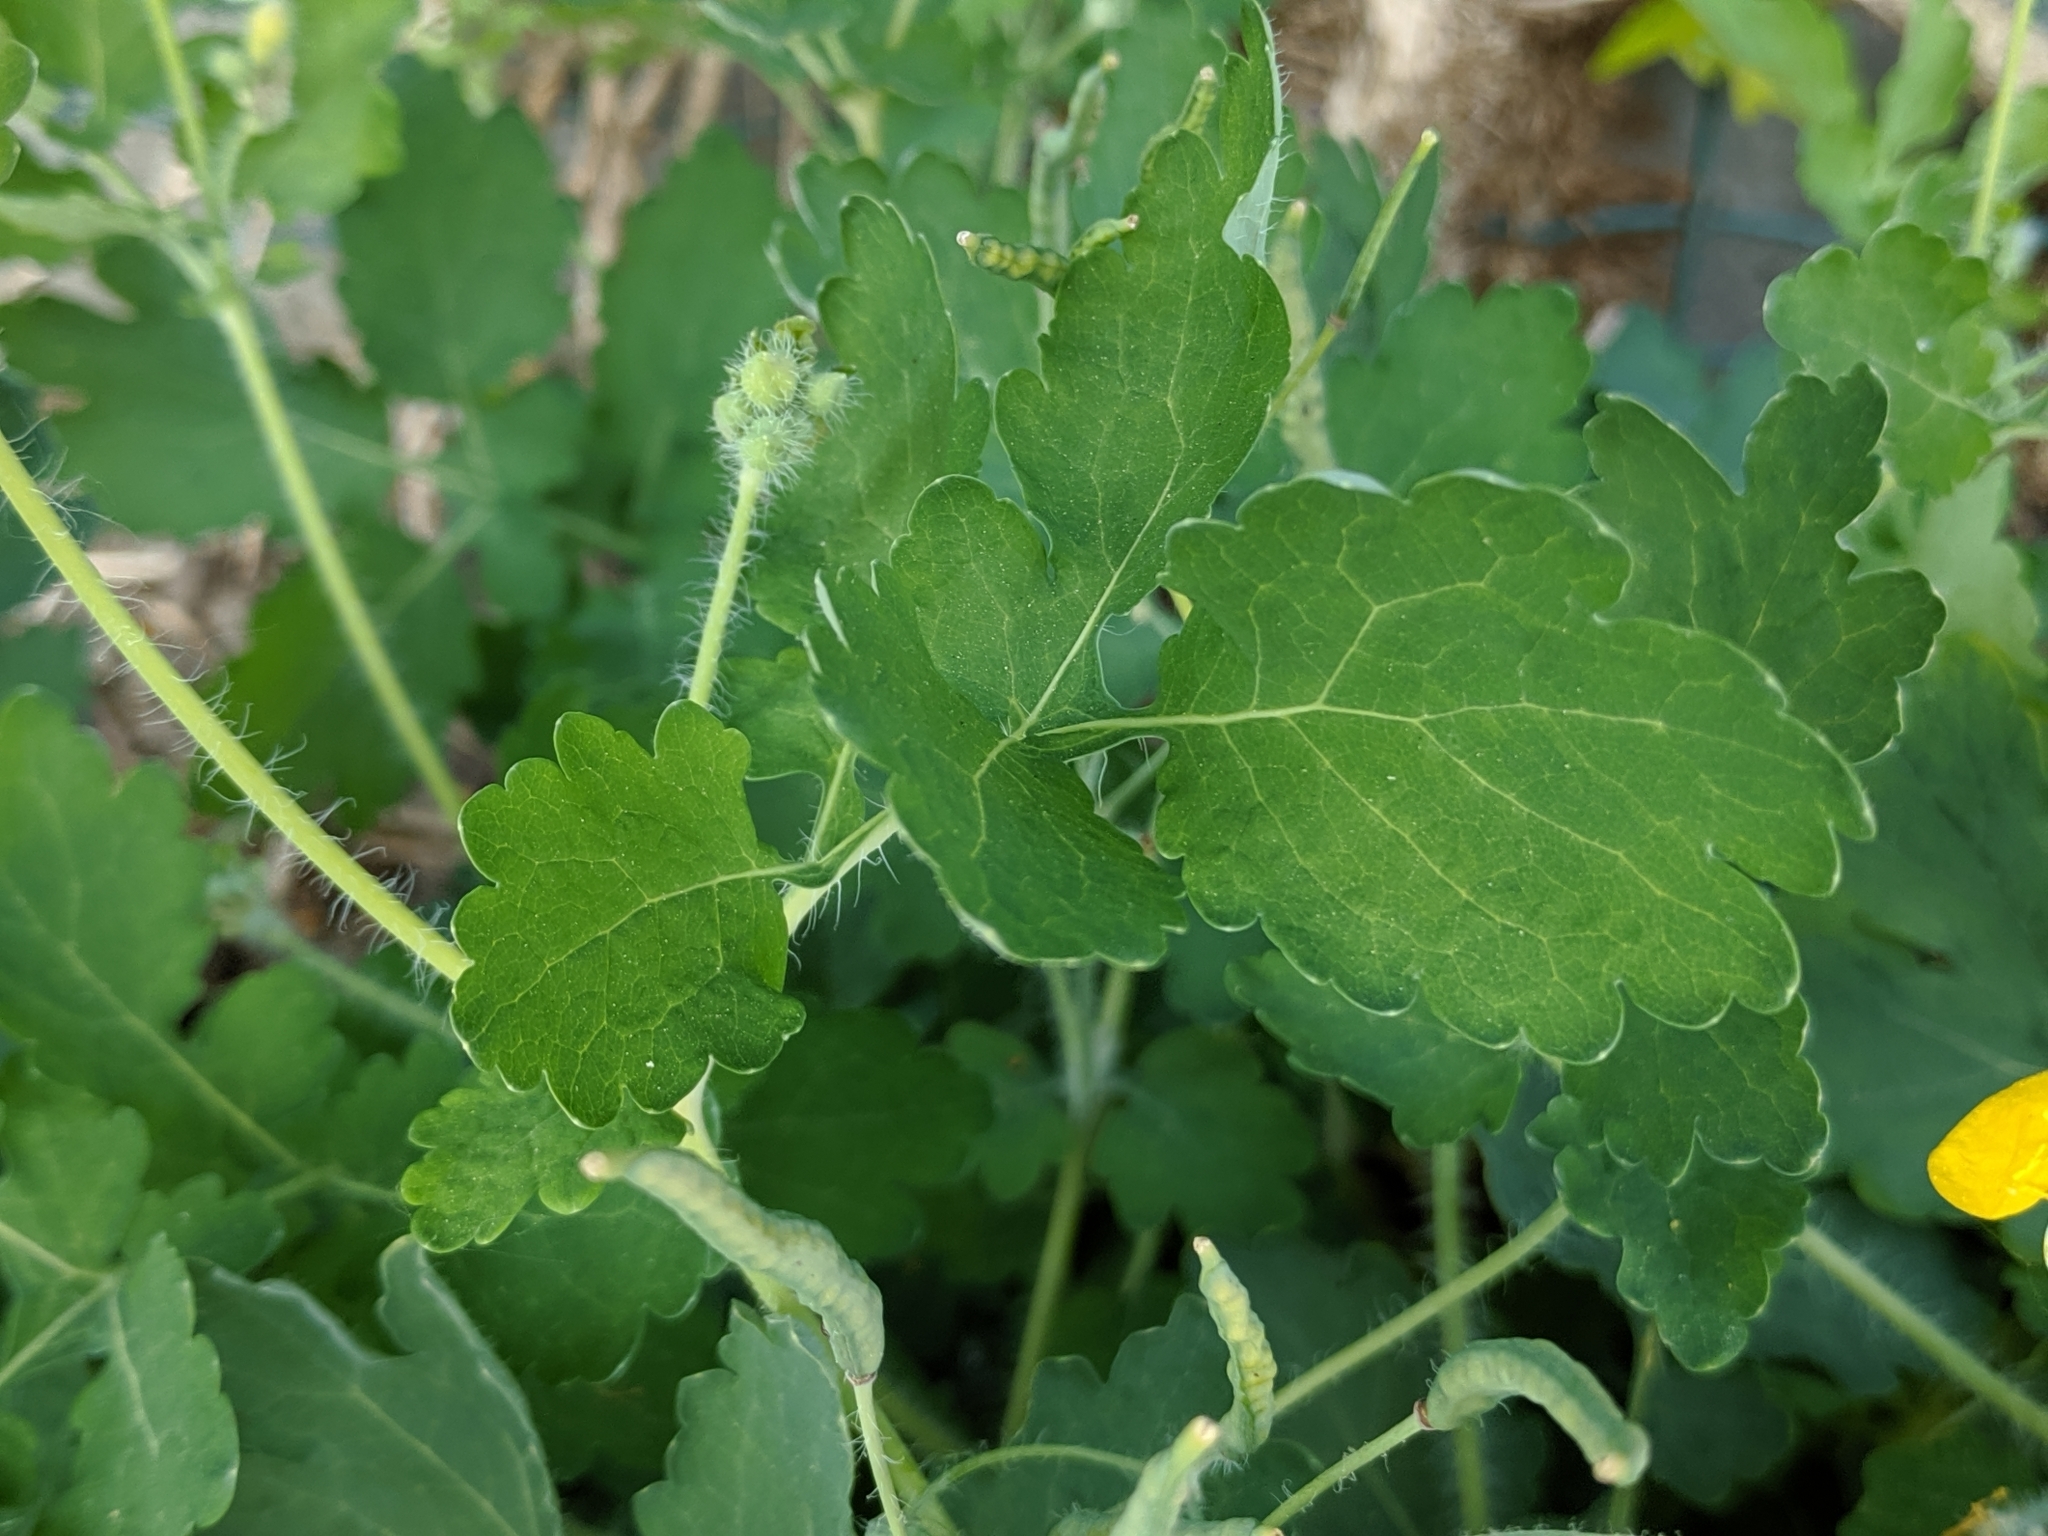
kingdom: Plantae
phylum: Tracheophyta
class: Magnoliopsida
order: Ranunculales
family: Papaveraceae
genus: Chelidonium
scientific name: Chelidonium majus
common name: Greater celandine
